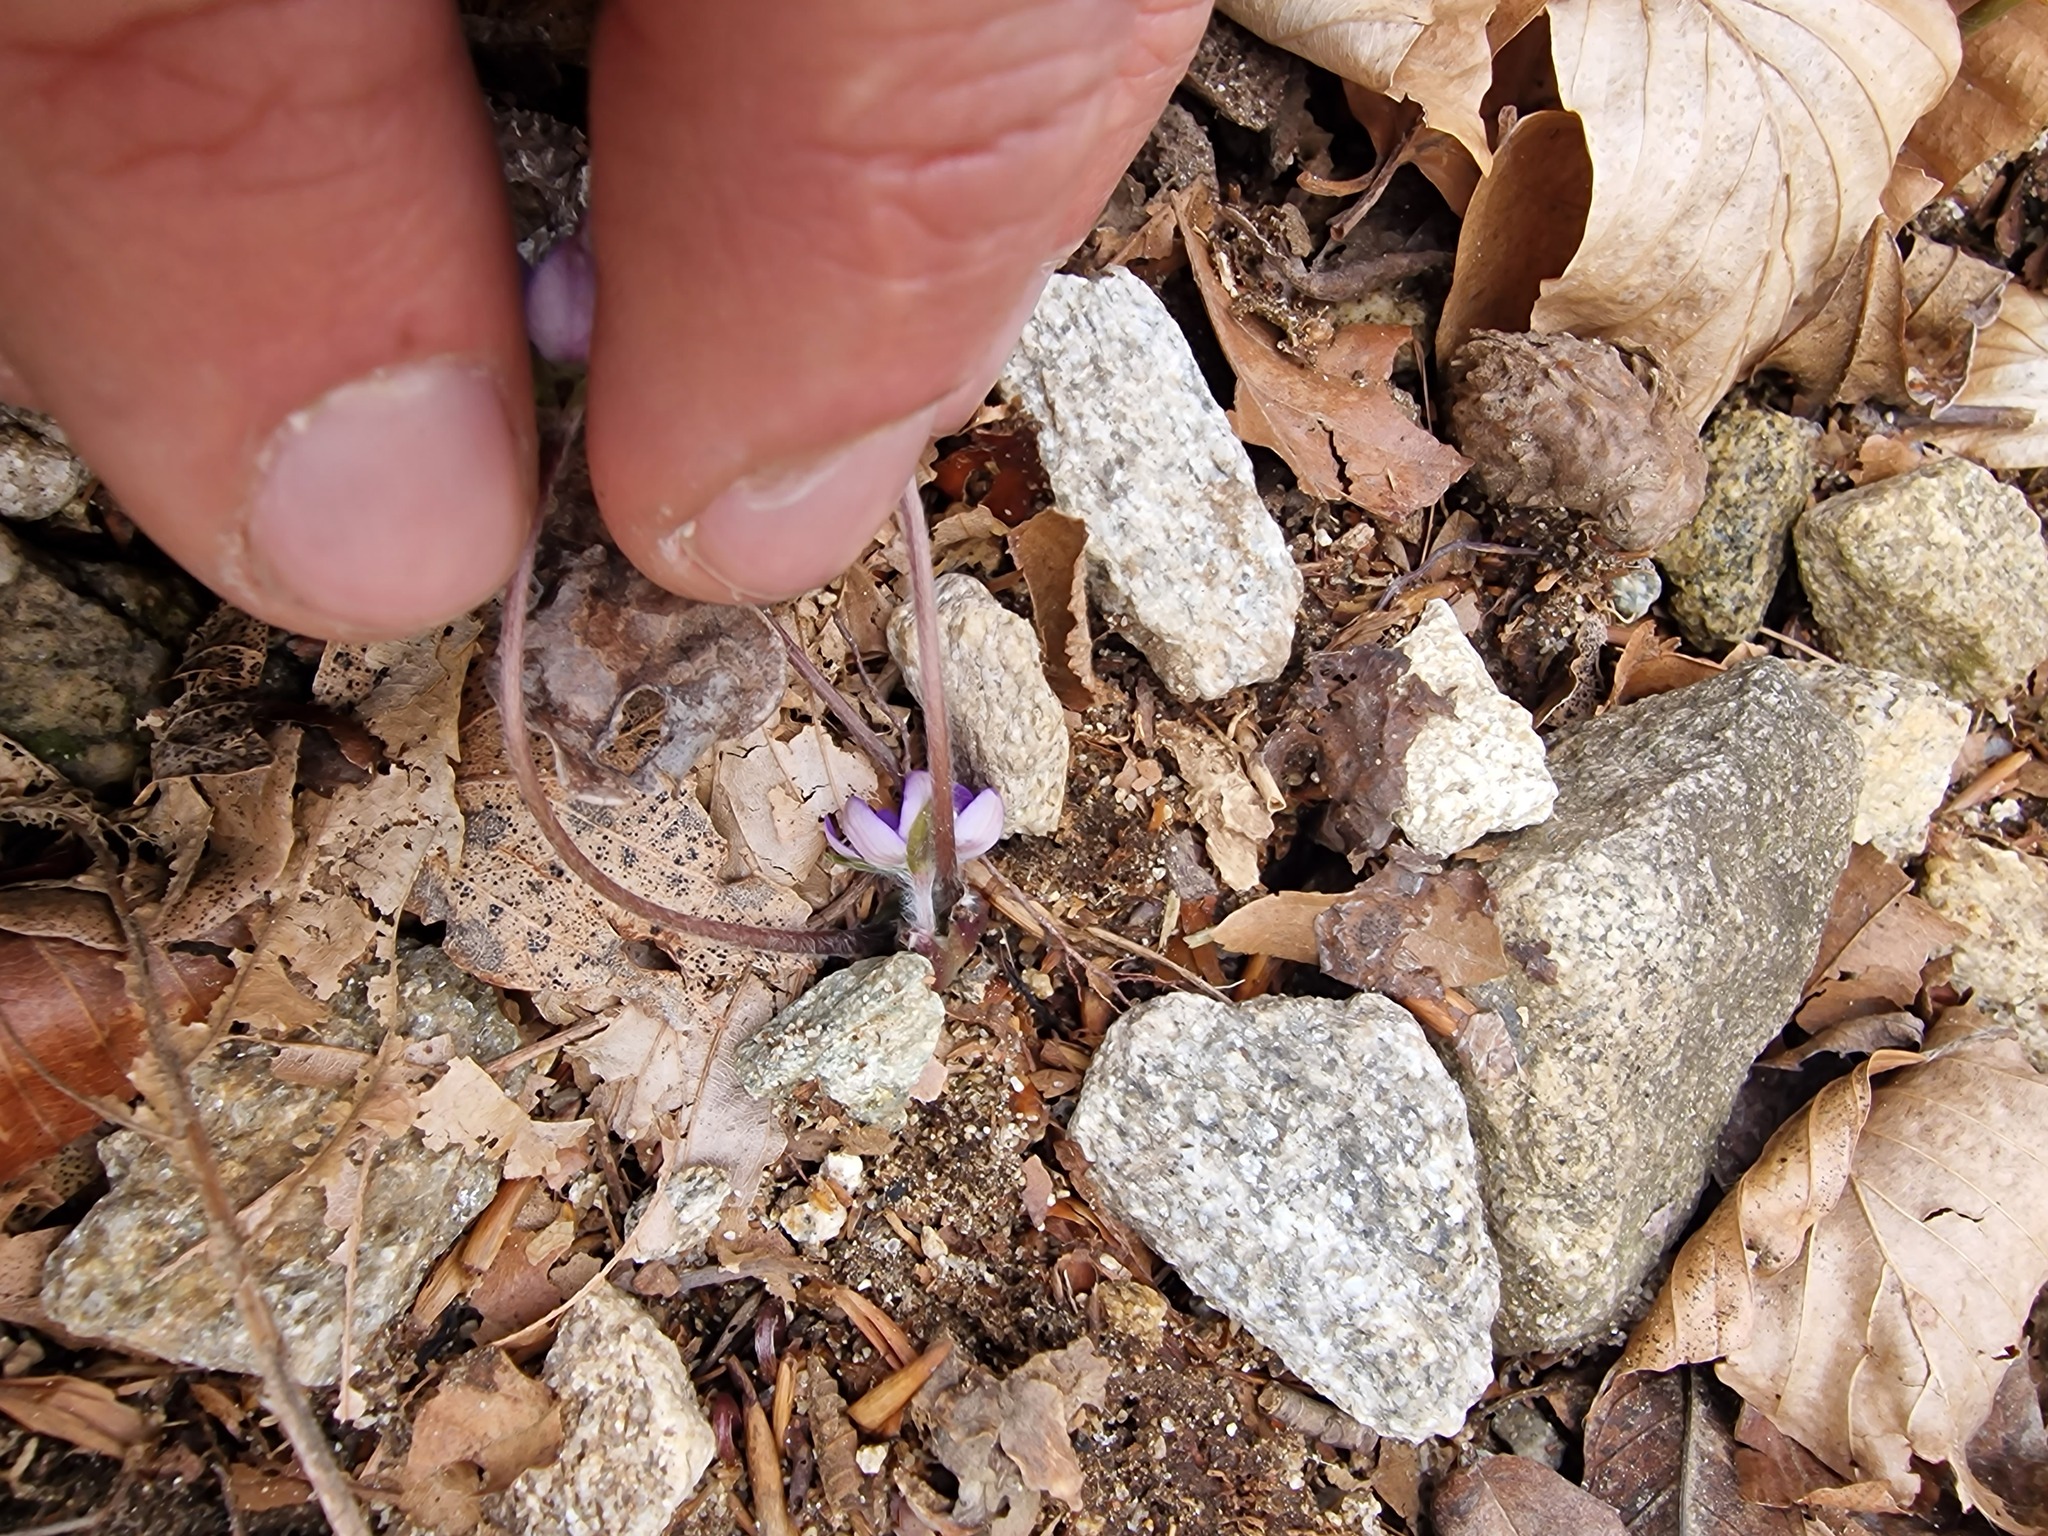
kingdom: Plantae
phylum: Tracheophyta
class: Magnoliopsida
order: Ranunculales
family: Ranunculaceae
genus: Hepatica
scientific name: Hepatica nobilis
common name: Liverleaf
